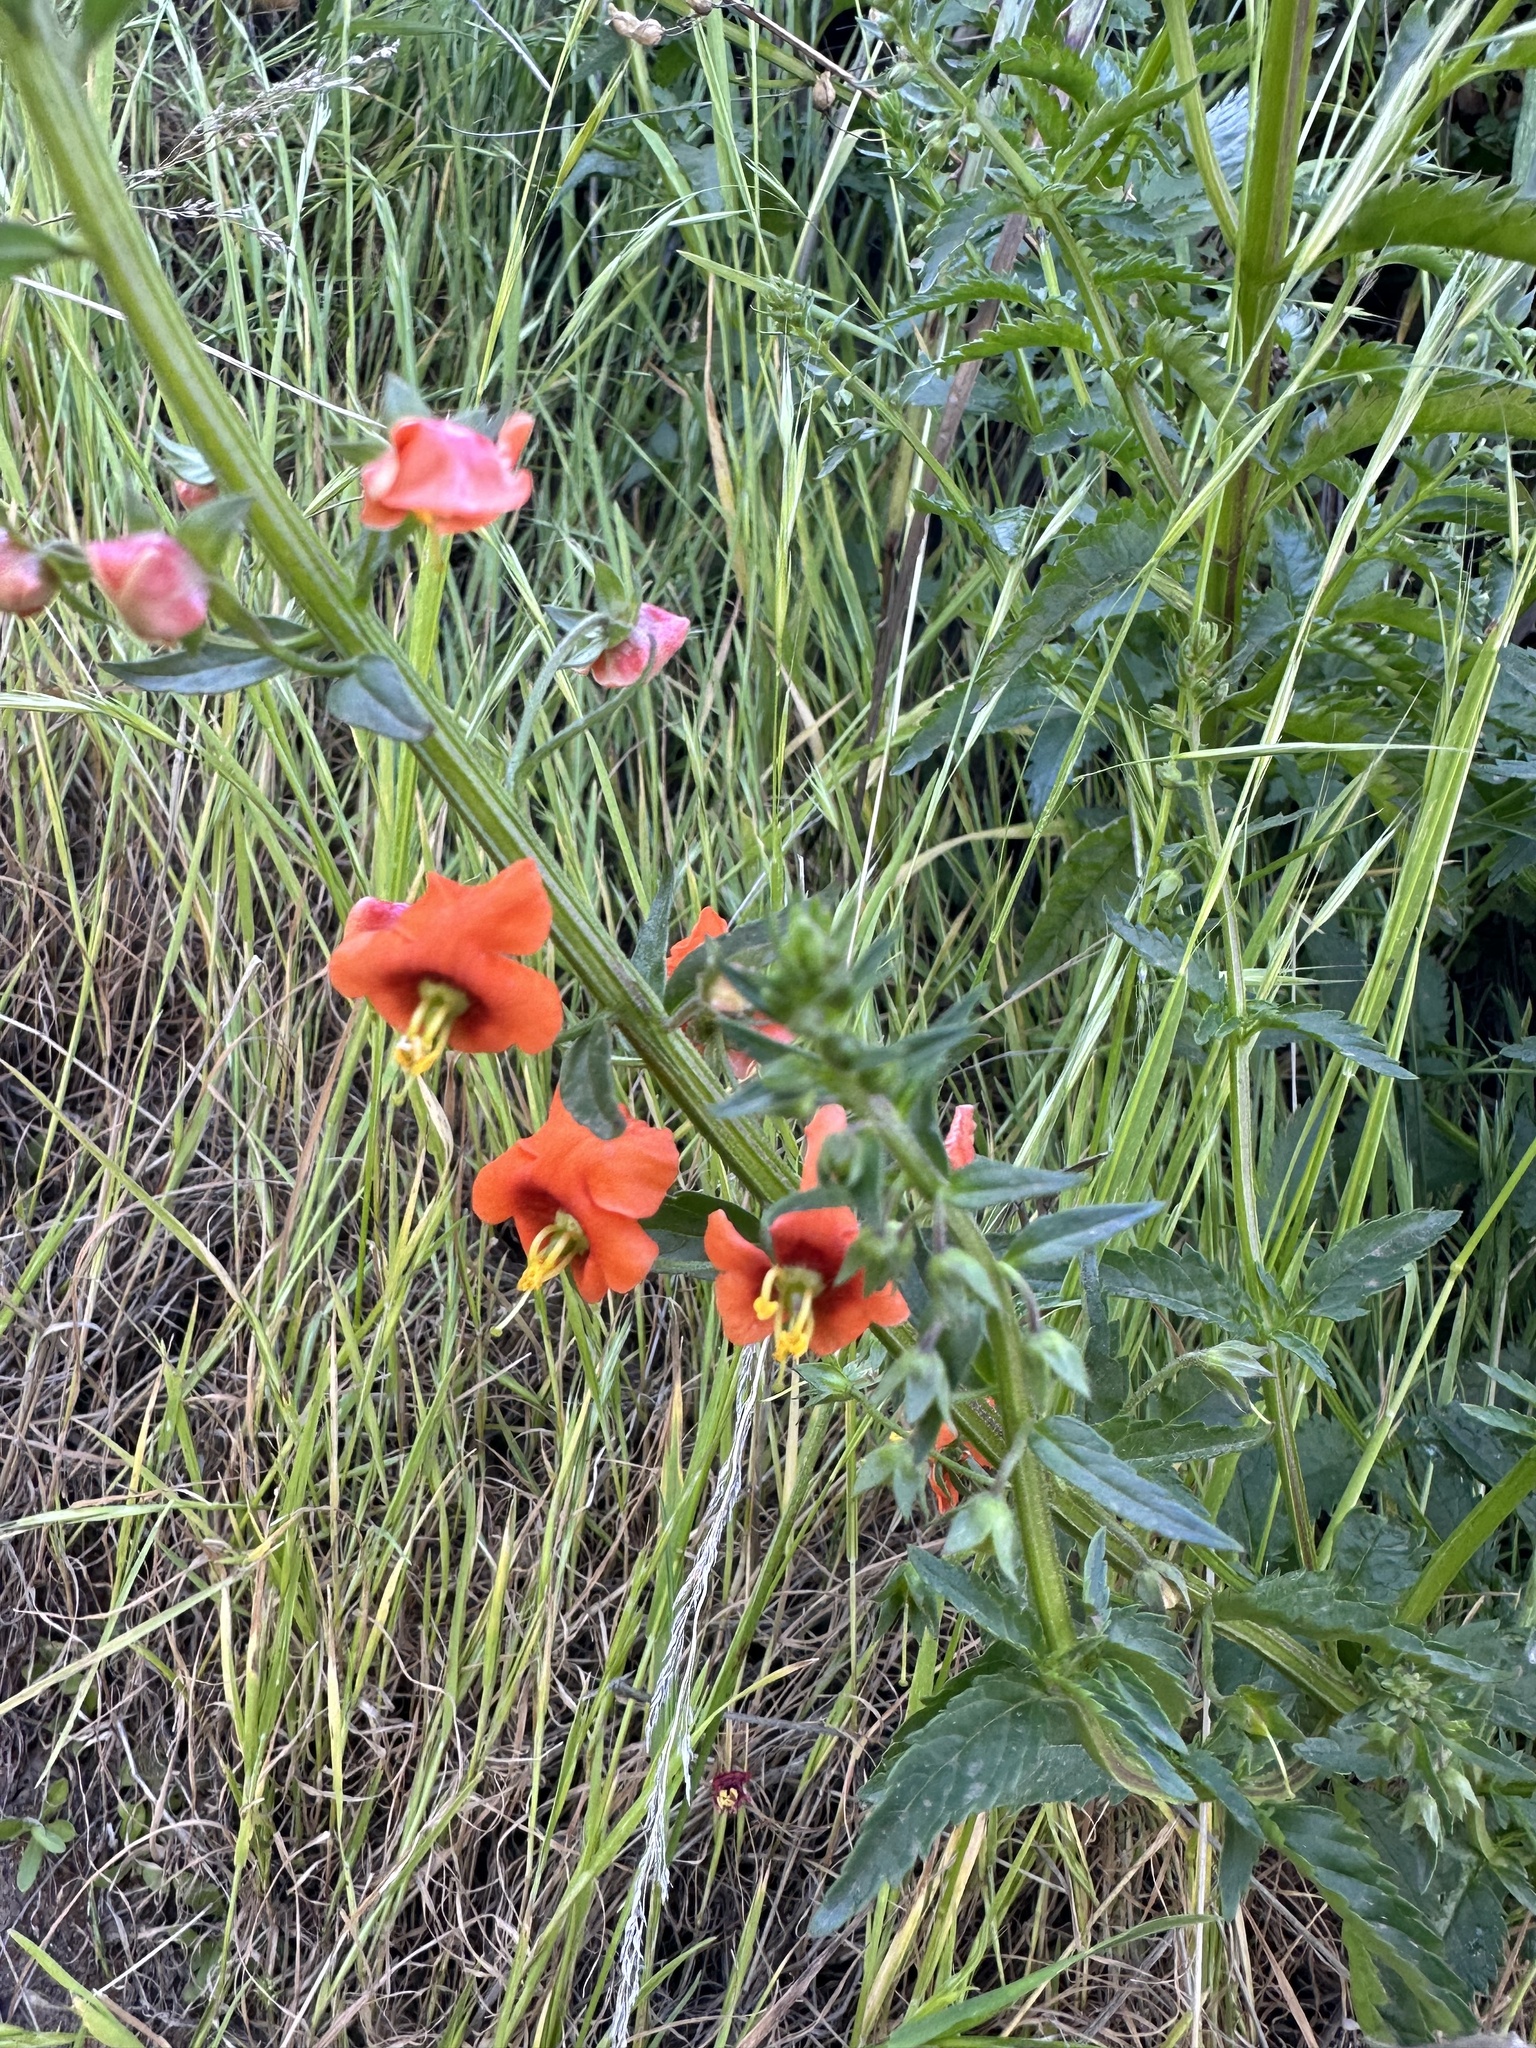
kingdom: Plantae
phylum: Tracheophyta
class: Magnoliopsida
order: Lamiales
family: Scrophulariaceae
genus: Alonsoa
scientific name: Alonsoa meridionalis
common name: Maskflower
